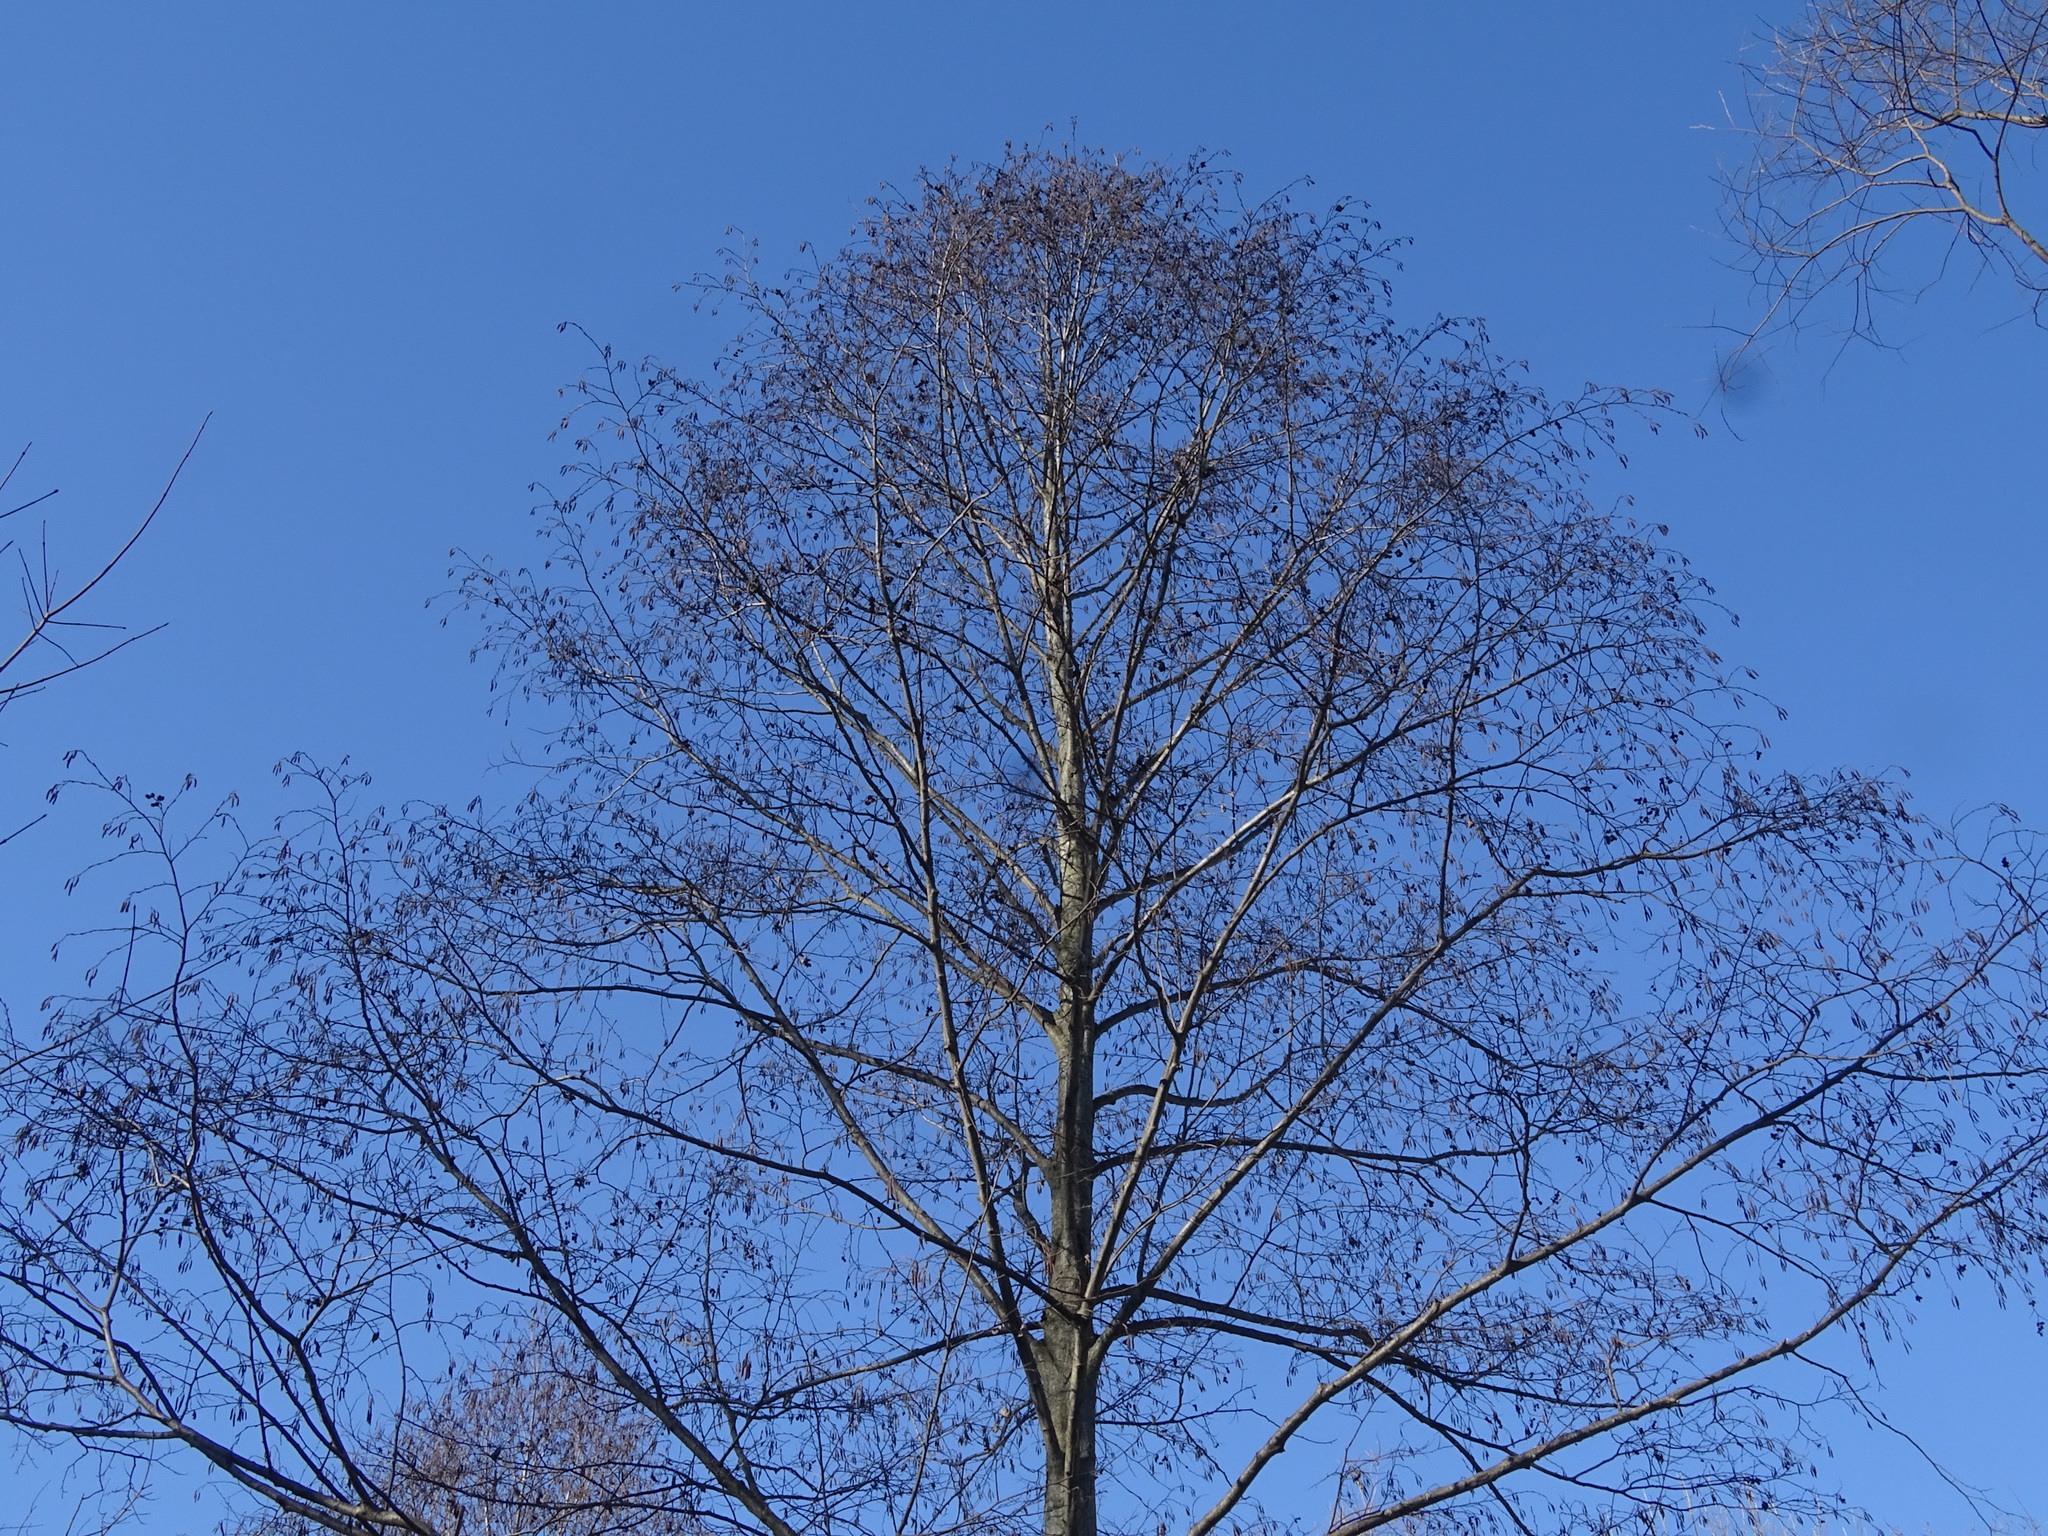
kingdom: Plantae
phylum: Tracheophyta
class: Magnoliopsida
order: Fagales
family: Betulaceae
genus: Alnus
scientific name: Alnus glutinosa
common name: Black alder
